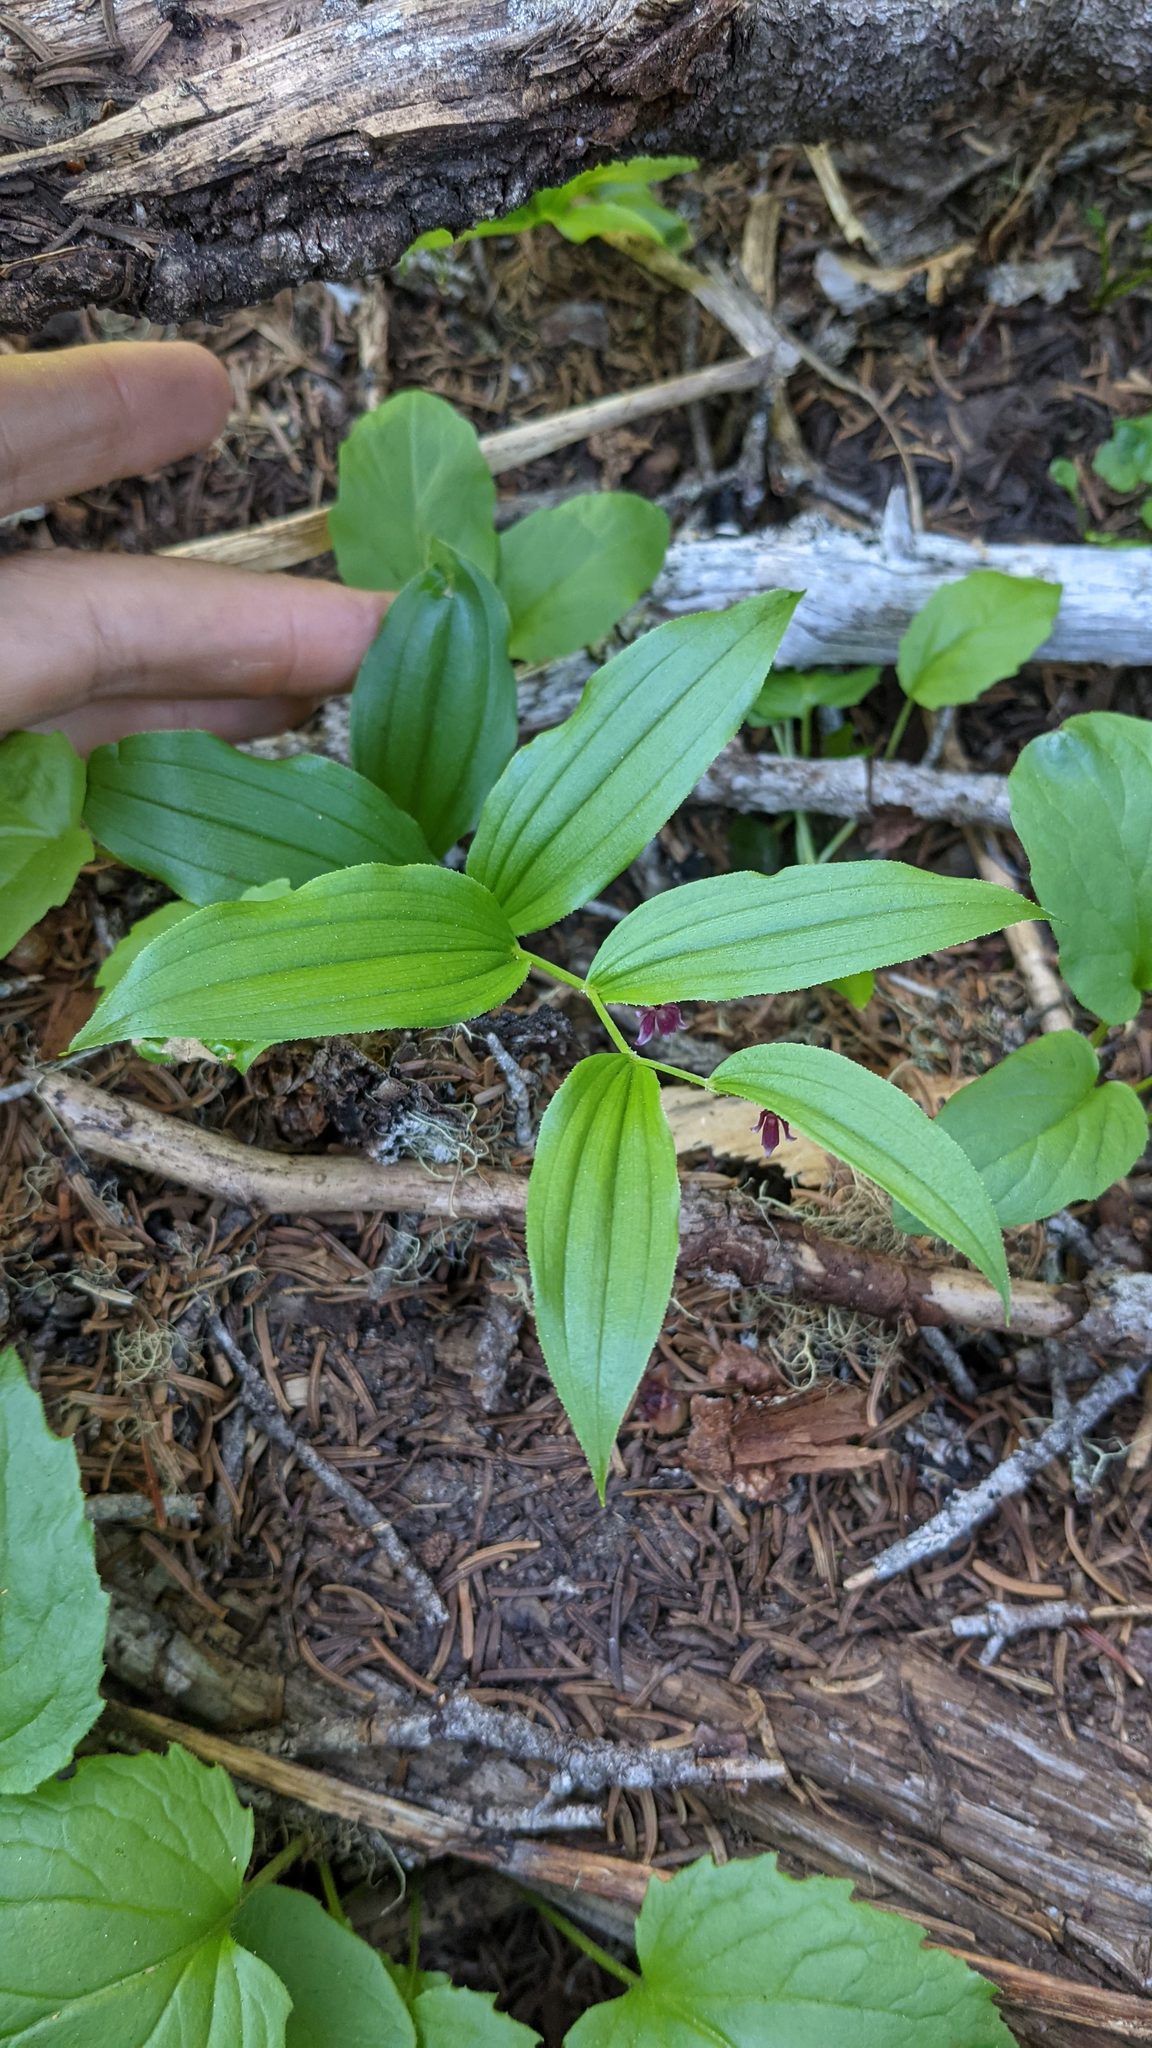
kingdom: Plantae
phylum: Tracheophyta
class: Liliopsida
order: Liliales
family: Liliaceae
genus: Streptopus
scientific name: Streptopus lanceolatus
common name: Rose mandarin
